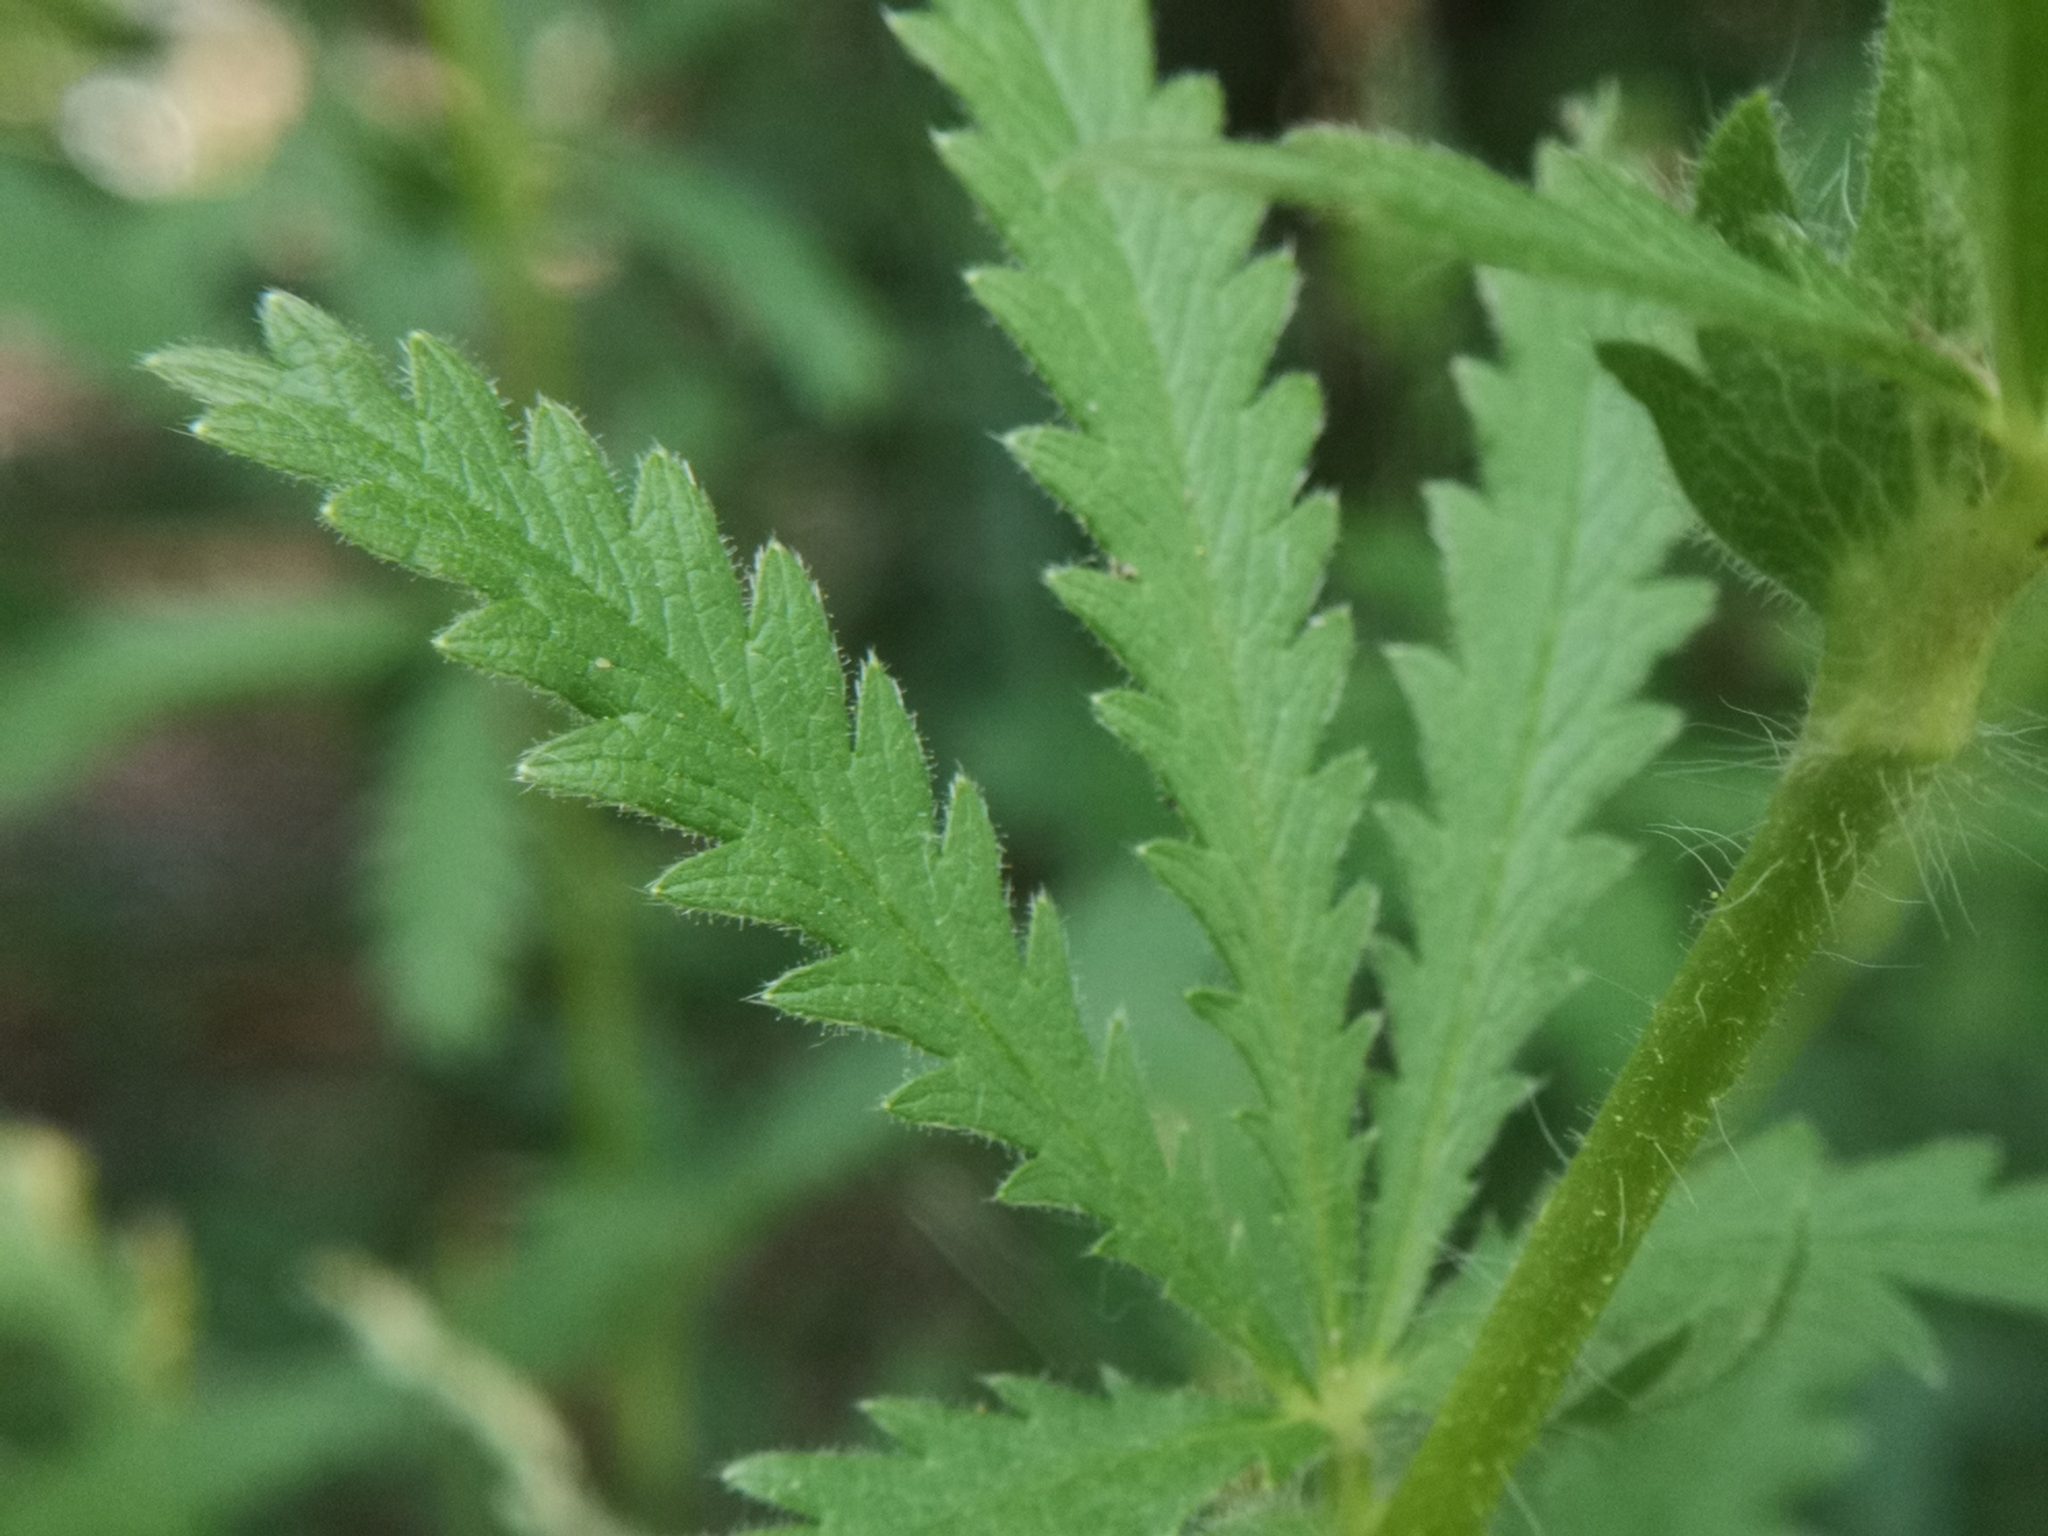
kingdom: Plantae
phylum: Tracheophyta
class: Magnoliopsida
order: Rosales
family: Rosaceae
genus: Potentilla
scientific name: Potentilla recta
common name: Sulphur cinquefoil
